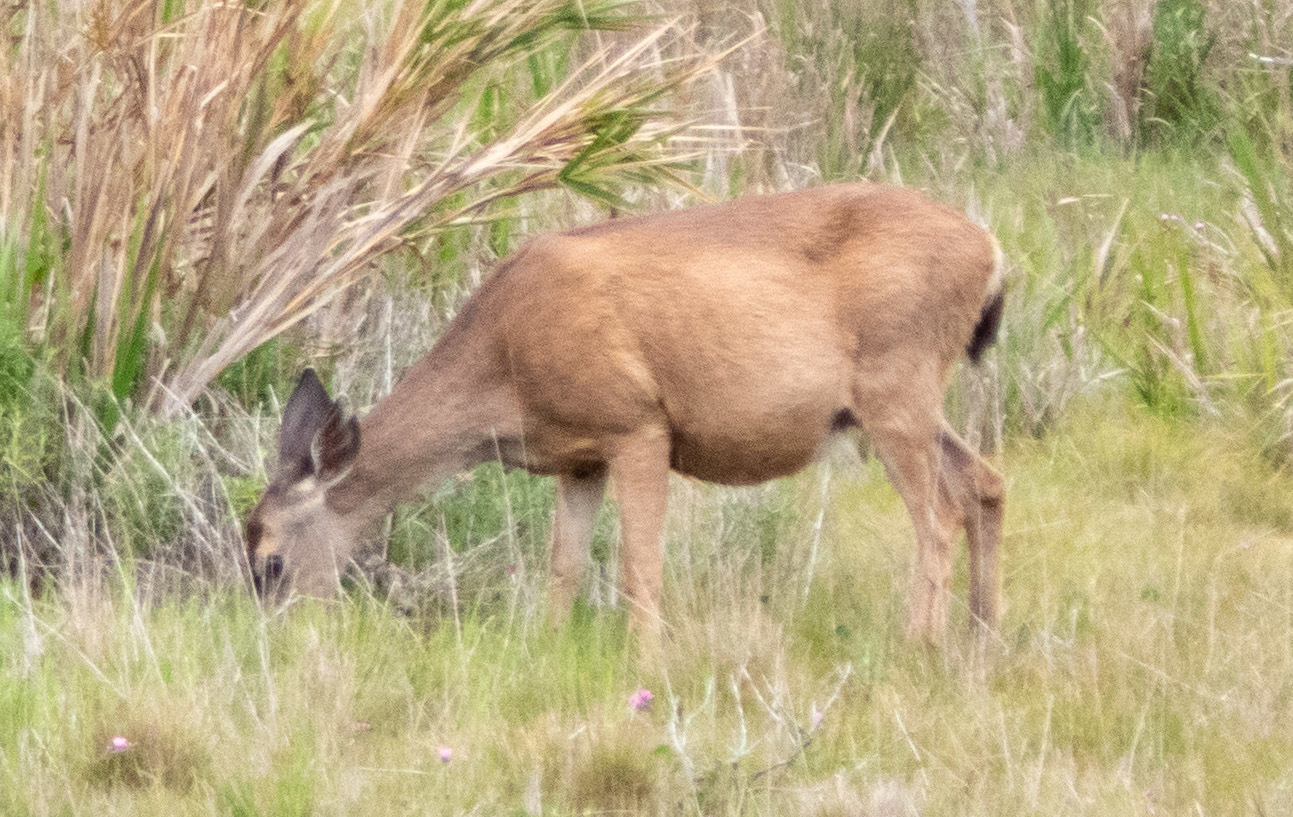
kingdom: Animalia
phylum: Chordata
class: Mammalia
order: Artiodactyla
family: Cervidae
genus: Odocoileus
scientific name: Odocoileus hemionus
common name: Mule deer
